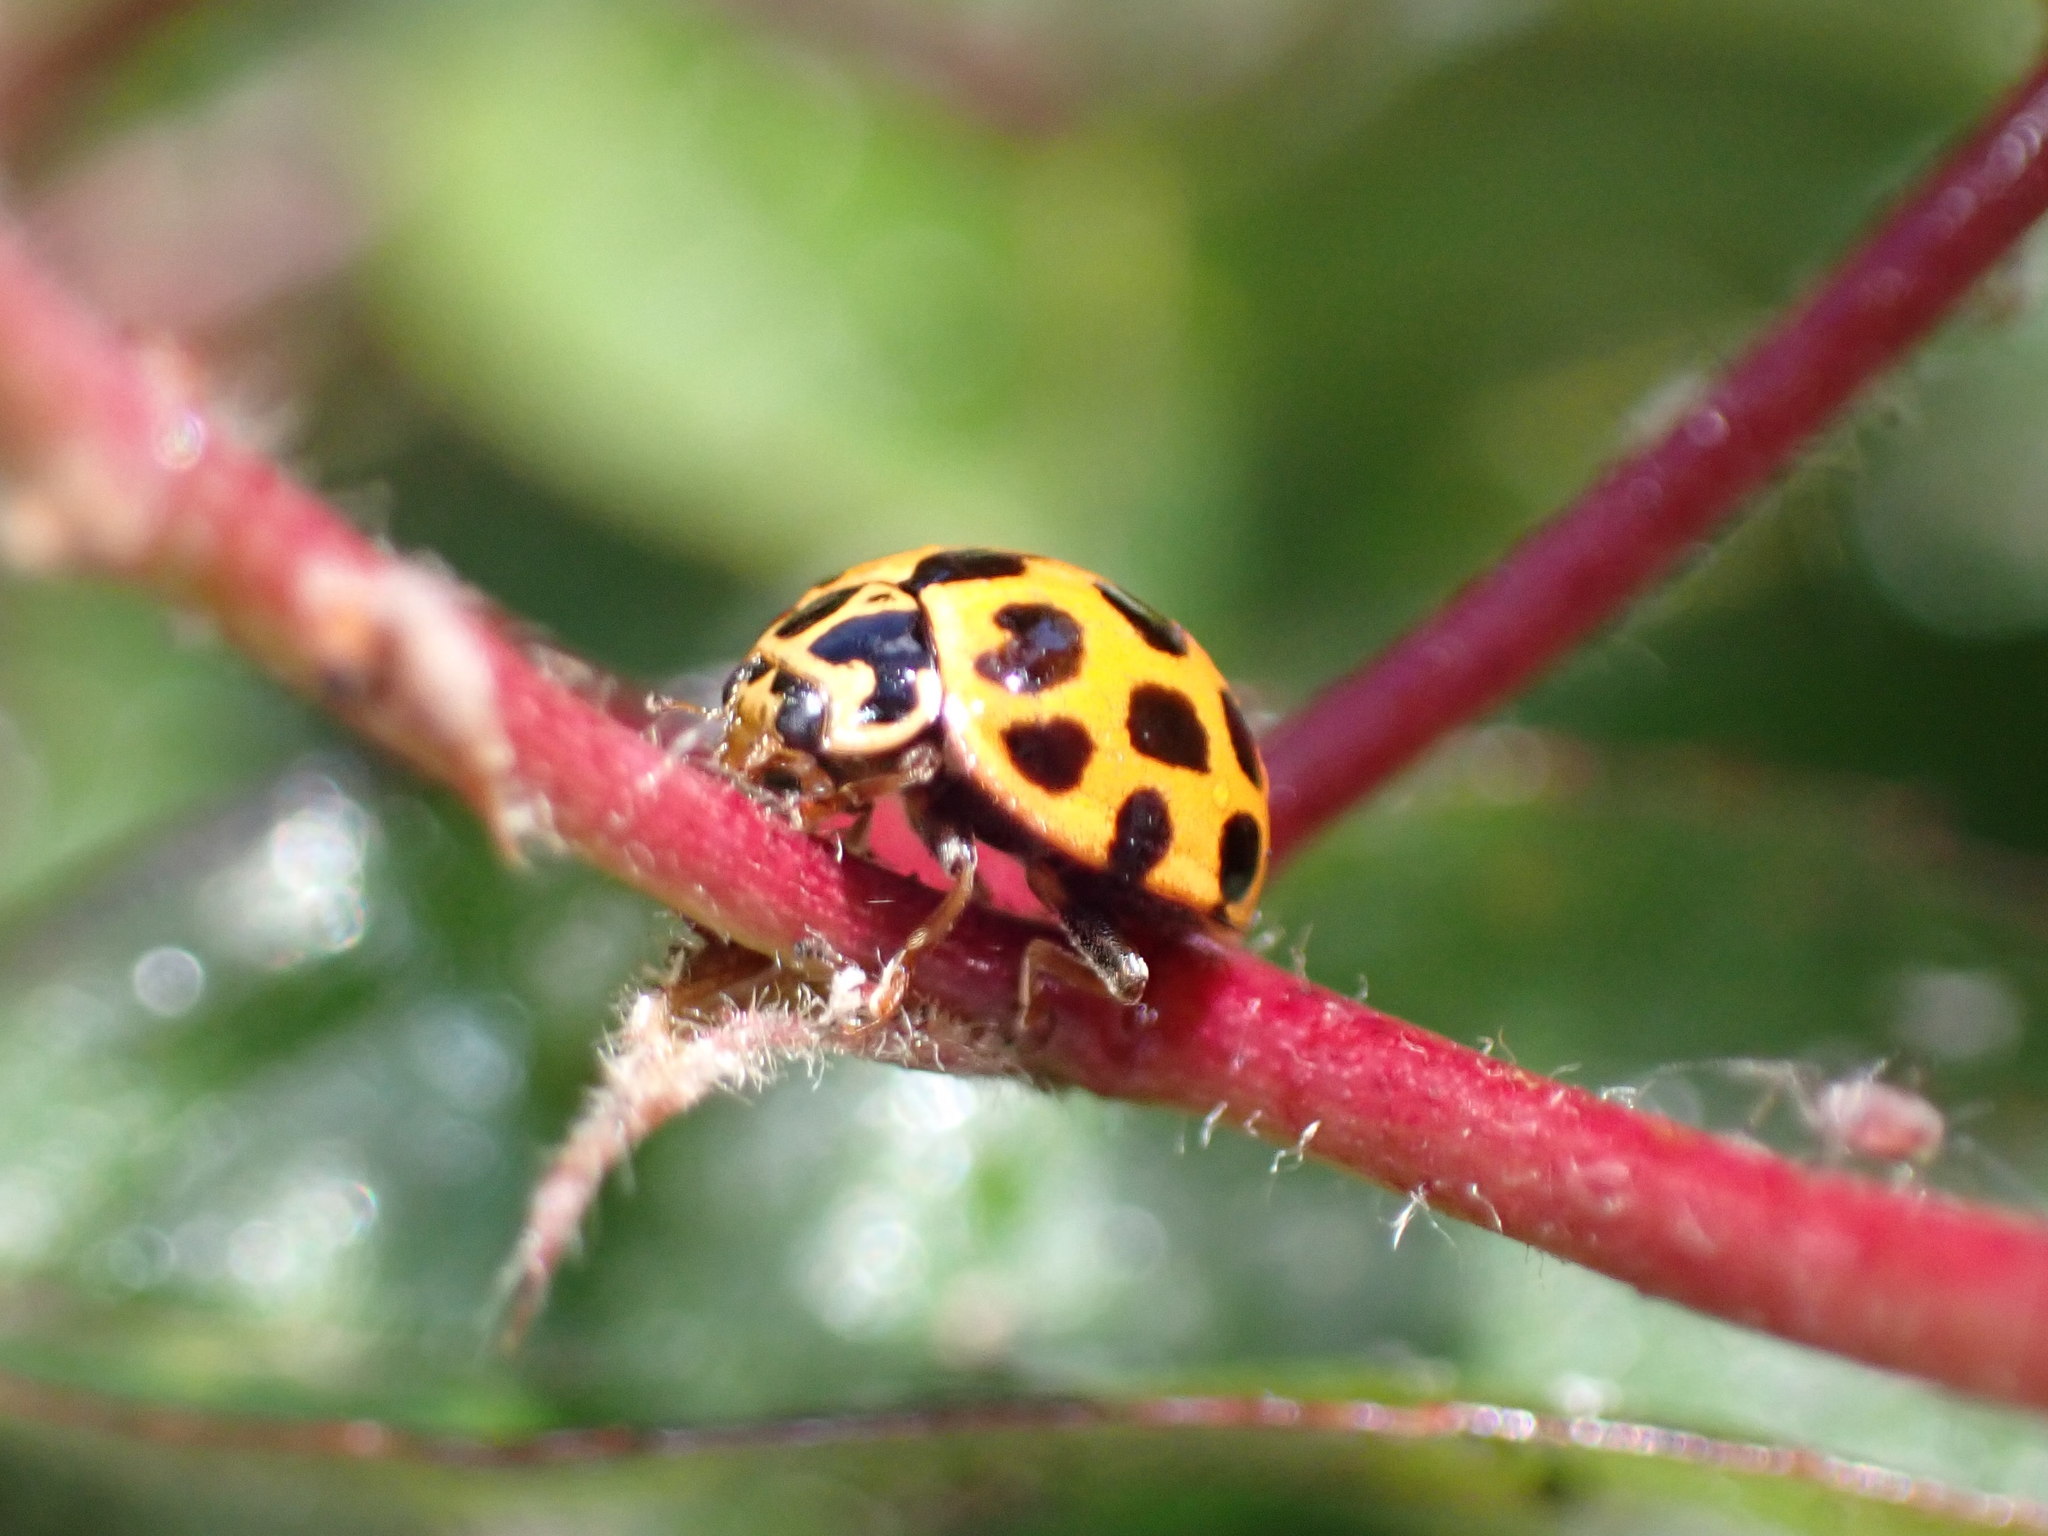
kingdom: Animalia
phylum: Arthropoda
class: Insecta
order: Coleoptera
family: Coccinellidae
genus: Harmonia
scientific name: Harmonia conformis
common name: Common spotted ladybird beetle
